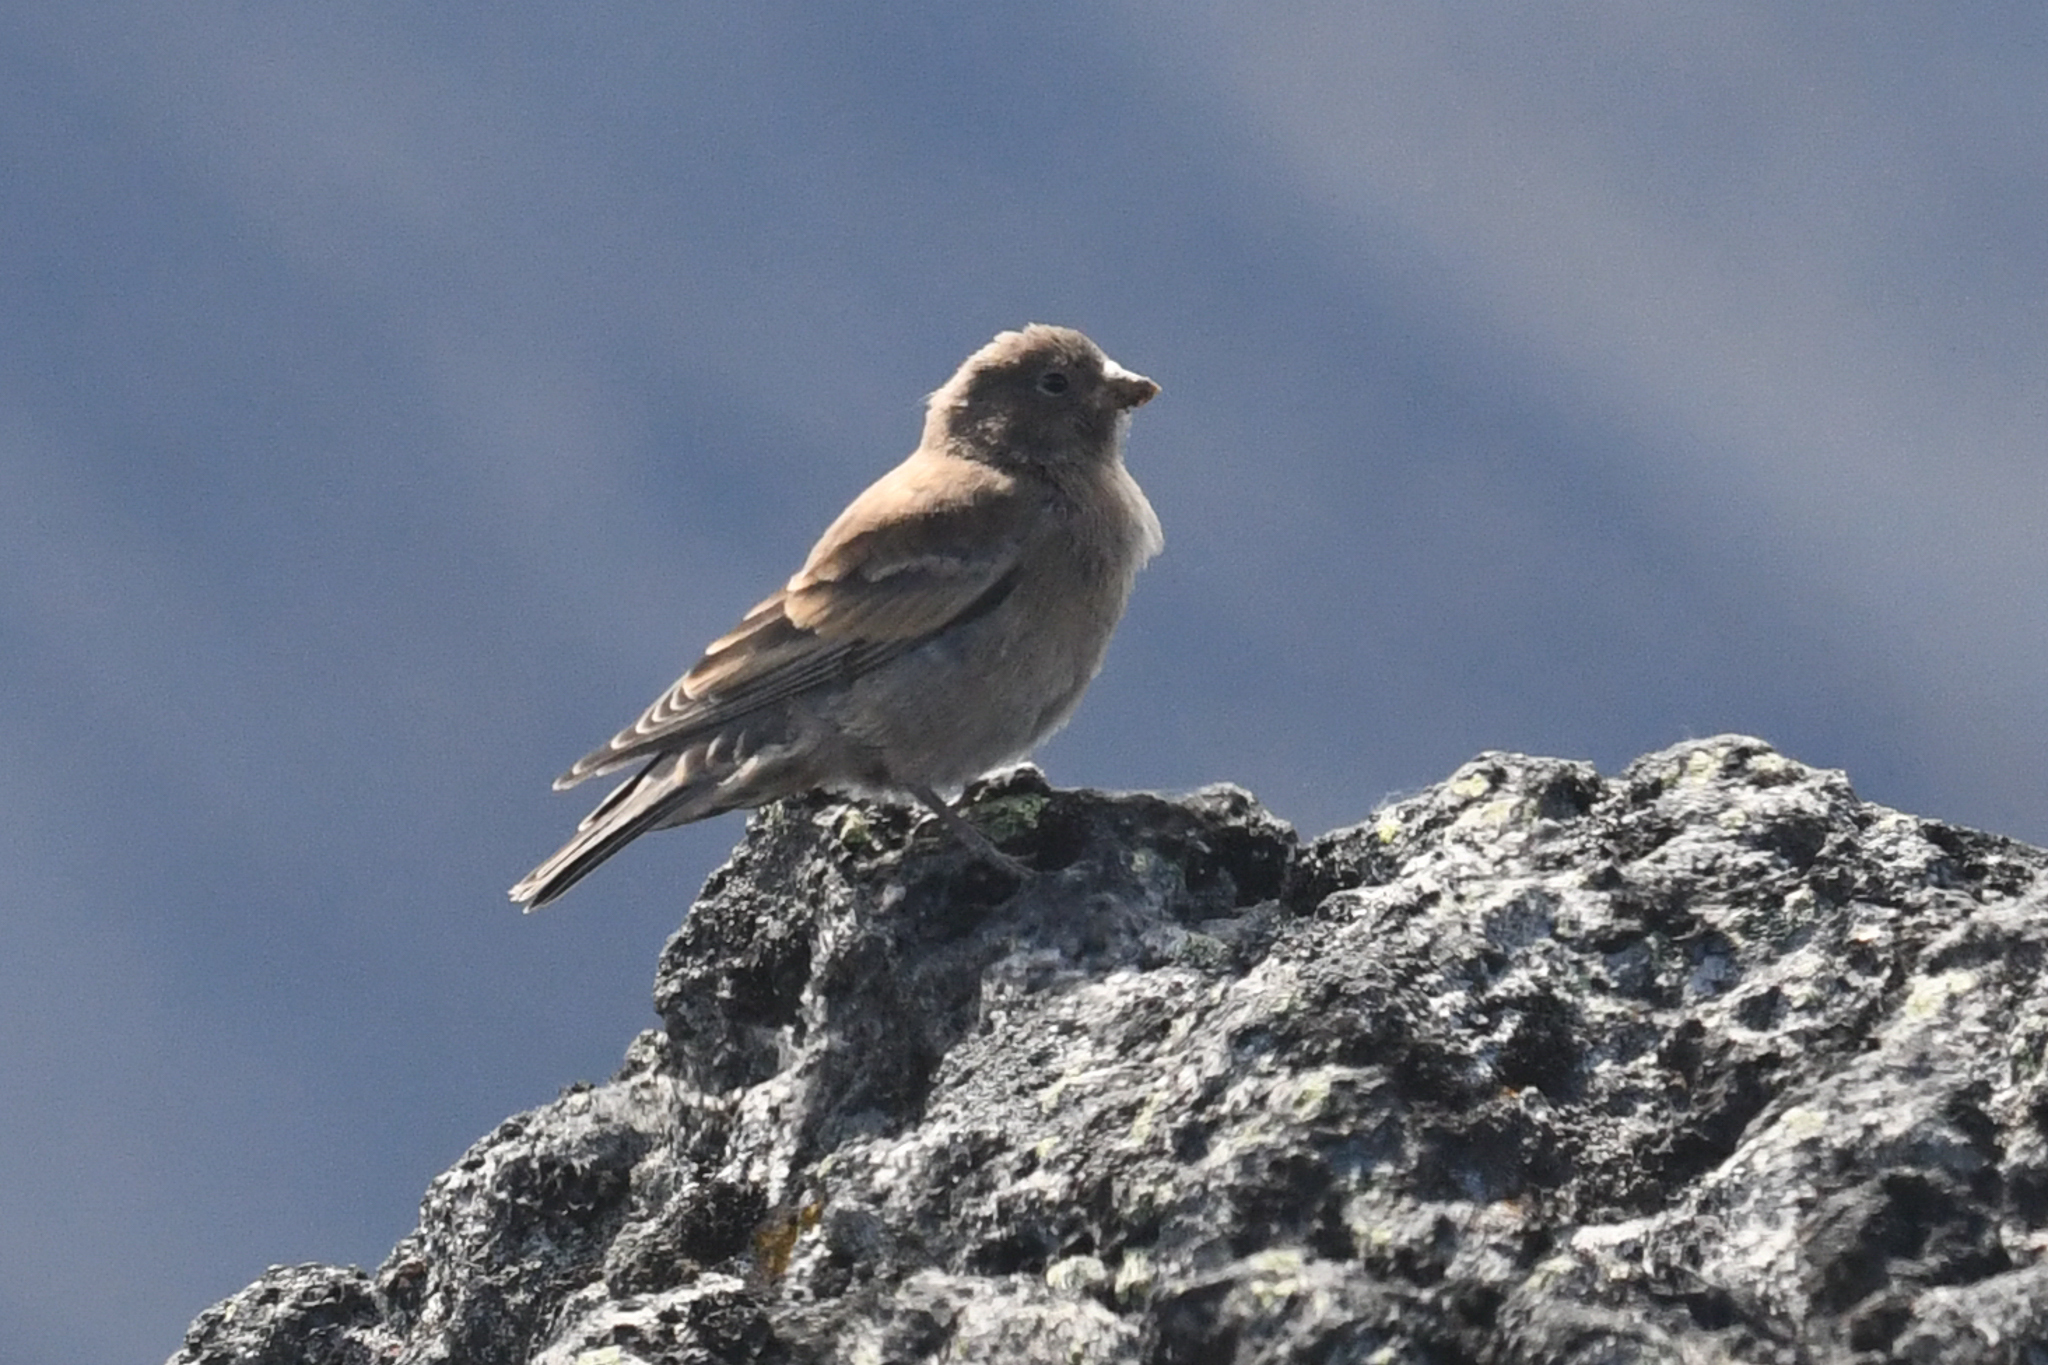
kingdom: Animalia
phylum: Chordata
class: Aves
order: Passeriformes
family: Fringillidae
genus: Leucosticte
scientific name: Leucosticte tephrocotis
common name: Gray-crowned rosy-finch
